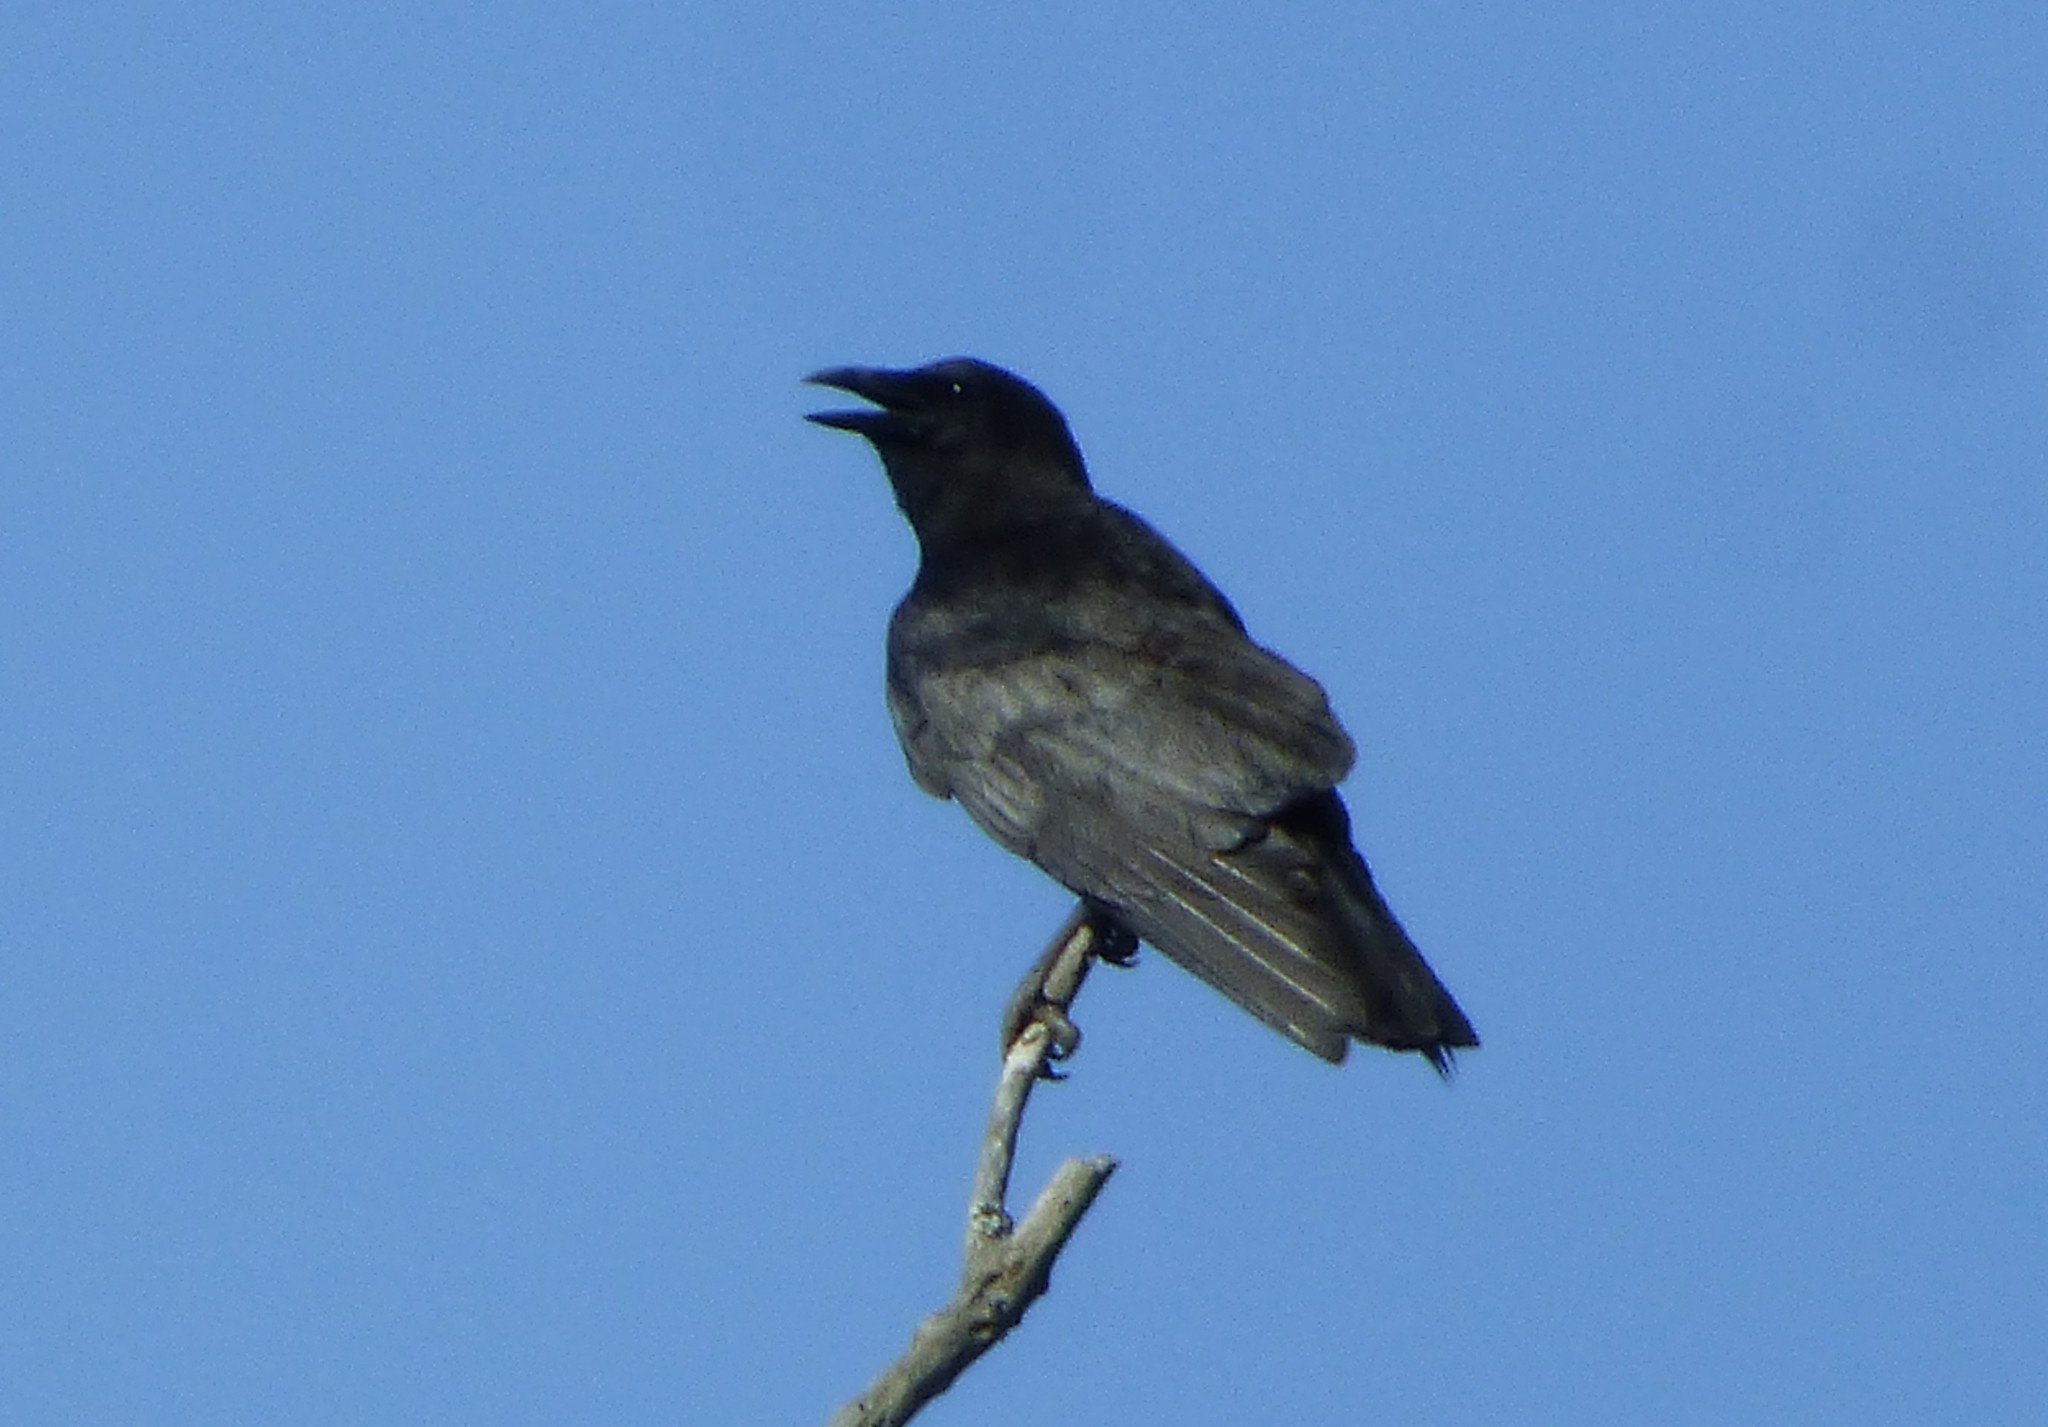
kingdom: Animalia
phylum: Chordata
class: Aves
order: Passeriformes
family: Corvidae
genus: Corvus
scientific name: Corvus brachyrhynchos
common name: American crow
